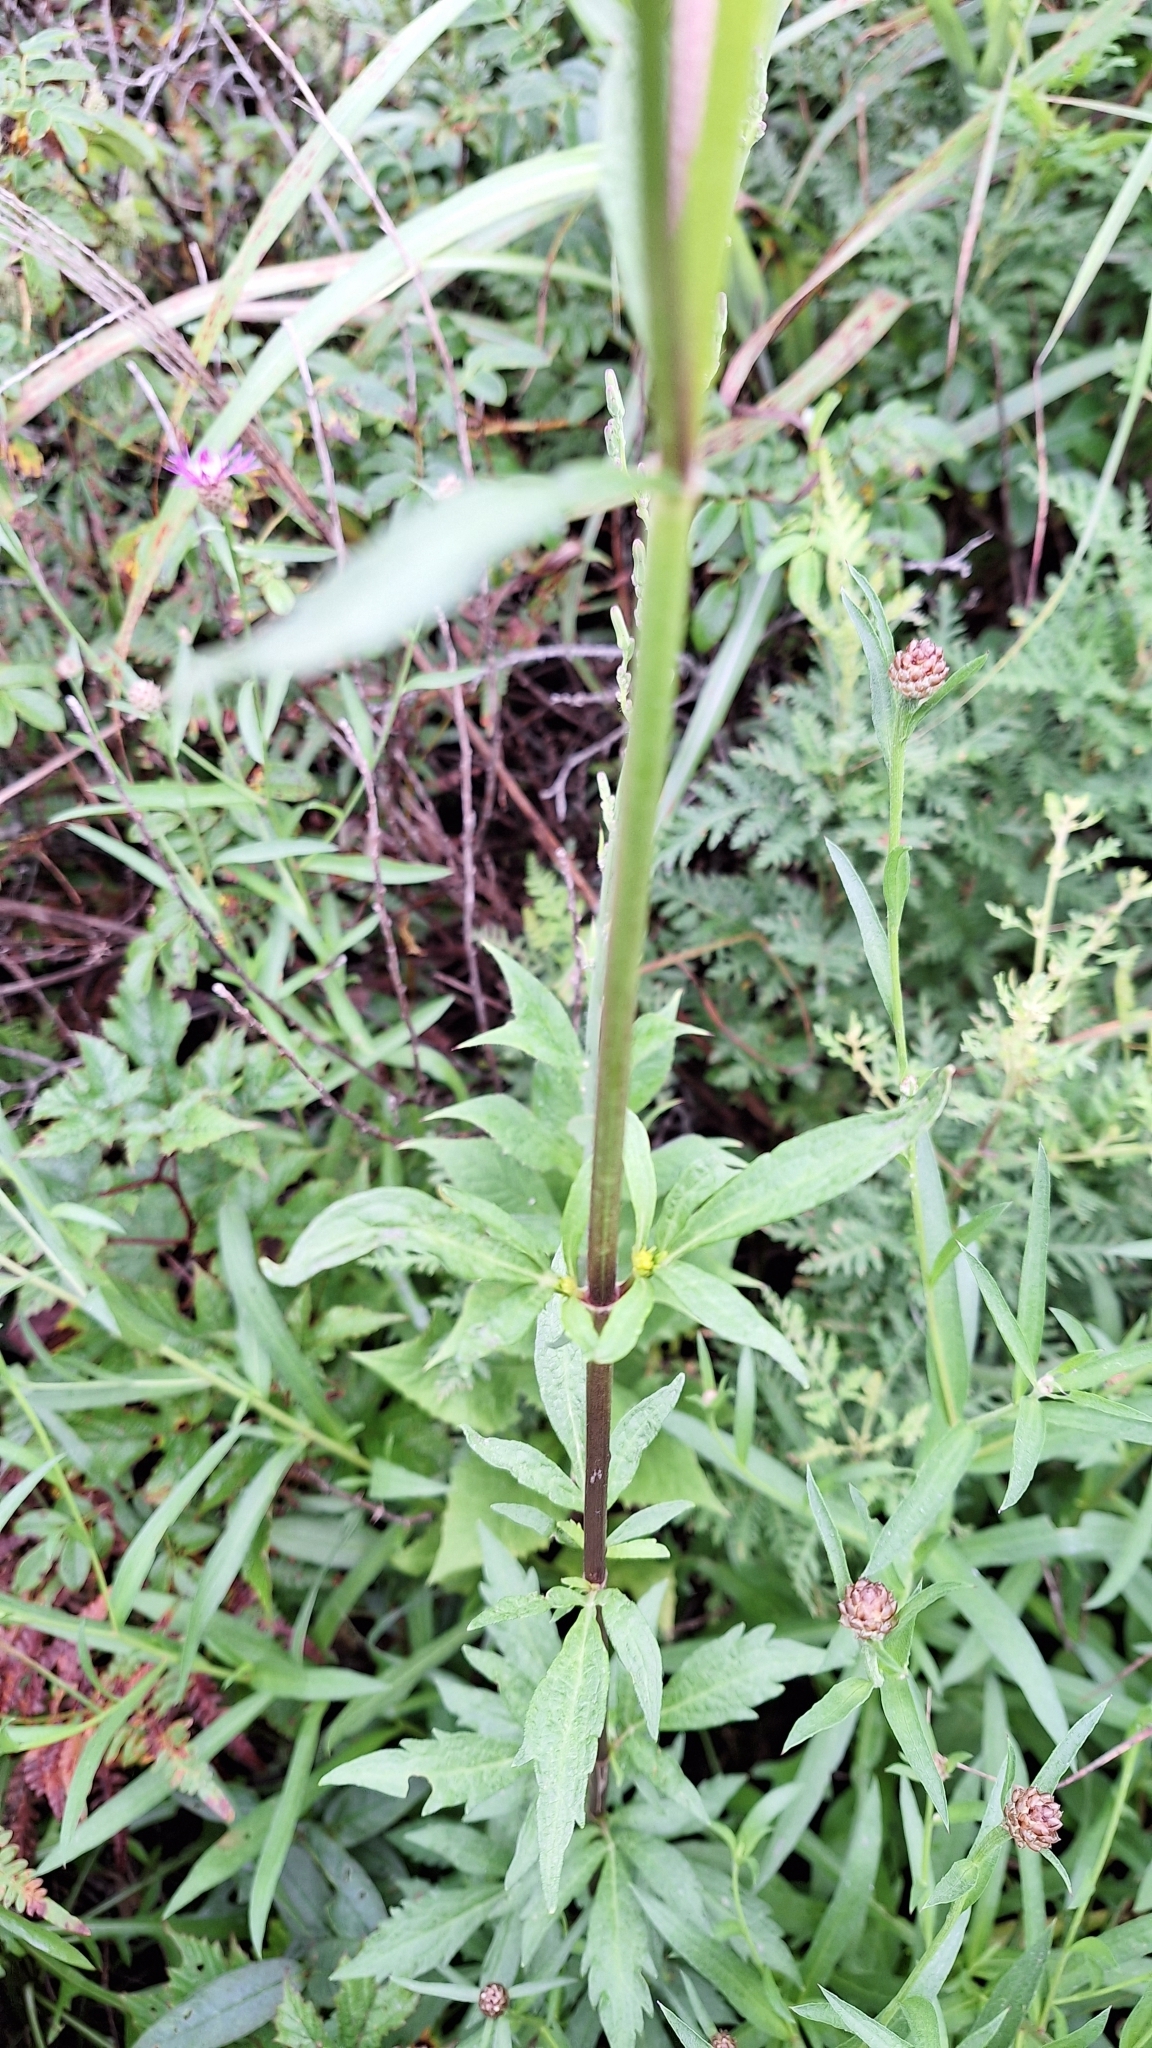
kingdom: Plantae
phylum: Tracheophyta
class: Magnoliopsida
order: Dipsacales
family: Caprifoliaceae
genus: Patrinia
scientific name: Patrinia scabiosifolia
